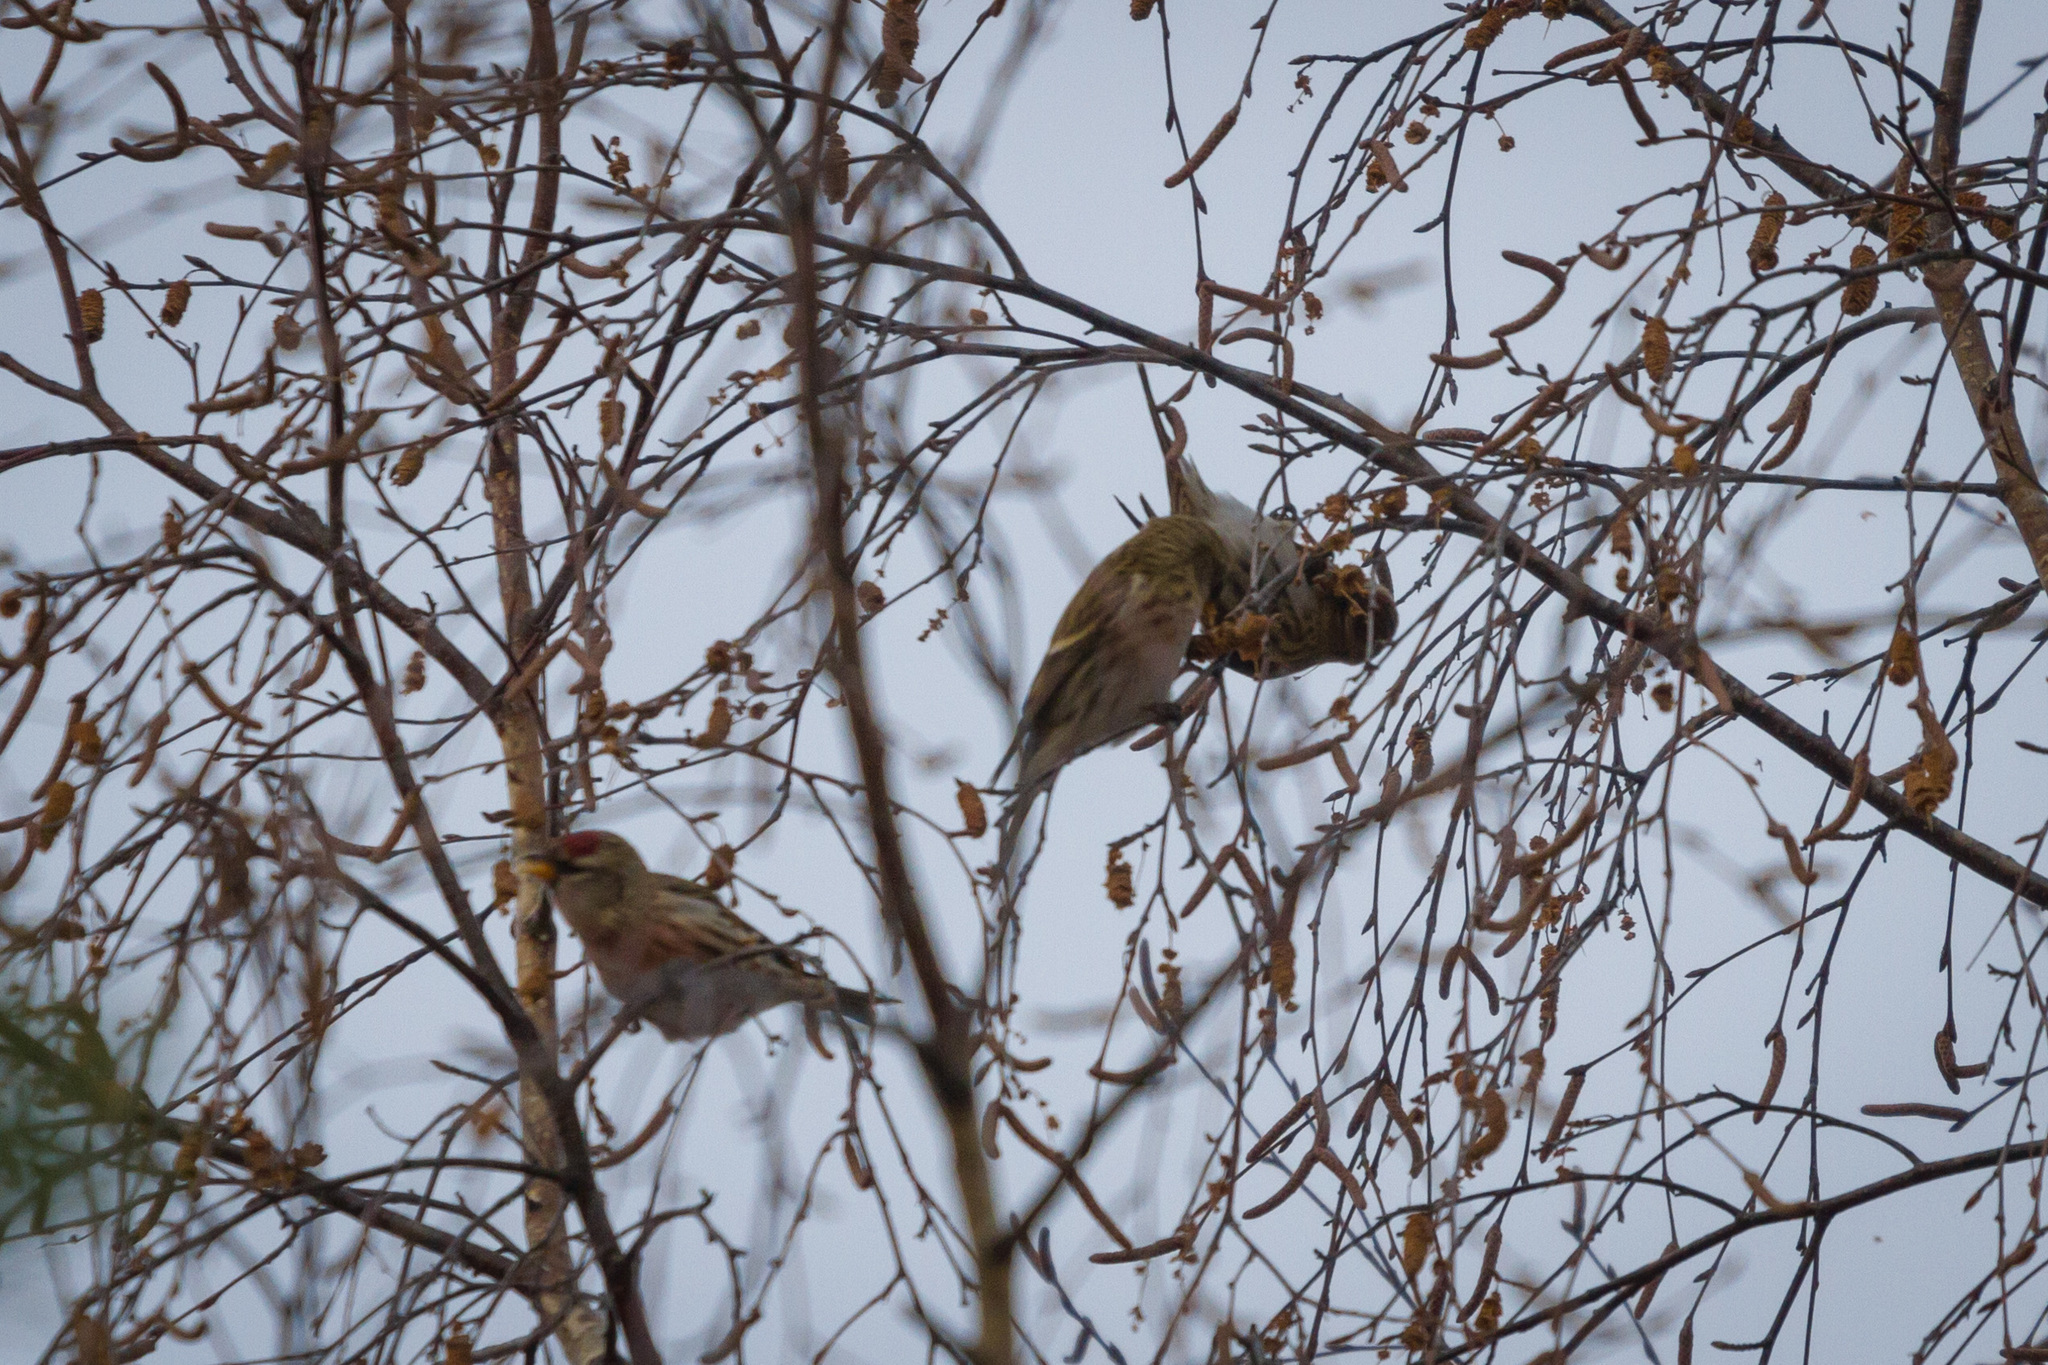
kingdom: Animalia
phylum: Chordata
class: Aves
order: Passeriformes
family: Fringillidae
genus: Acanthis
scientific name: Acanthis flammea
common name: Common redpoll
